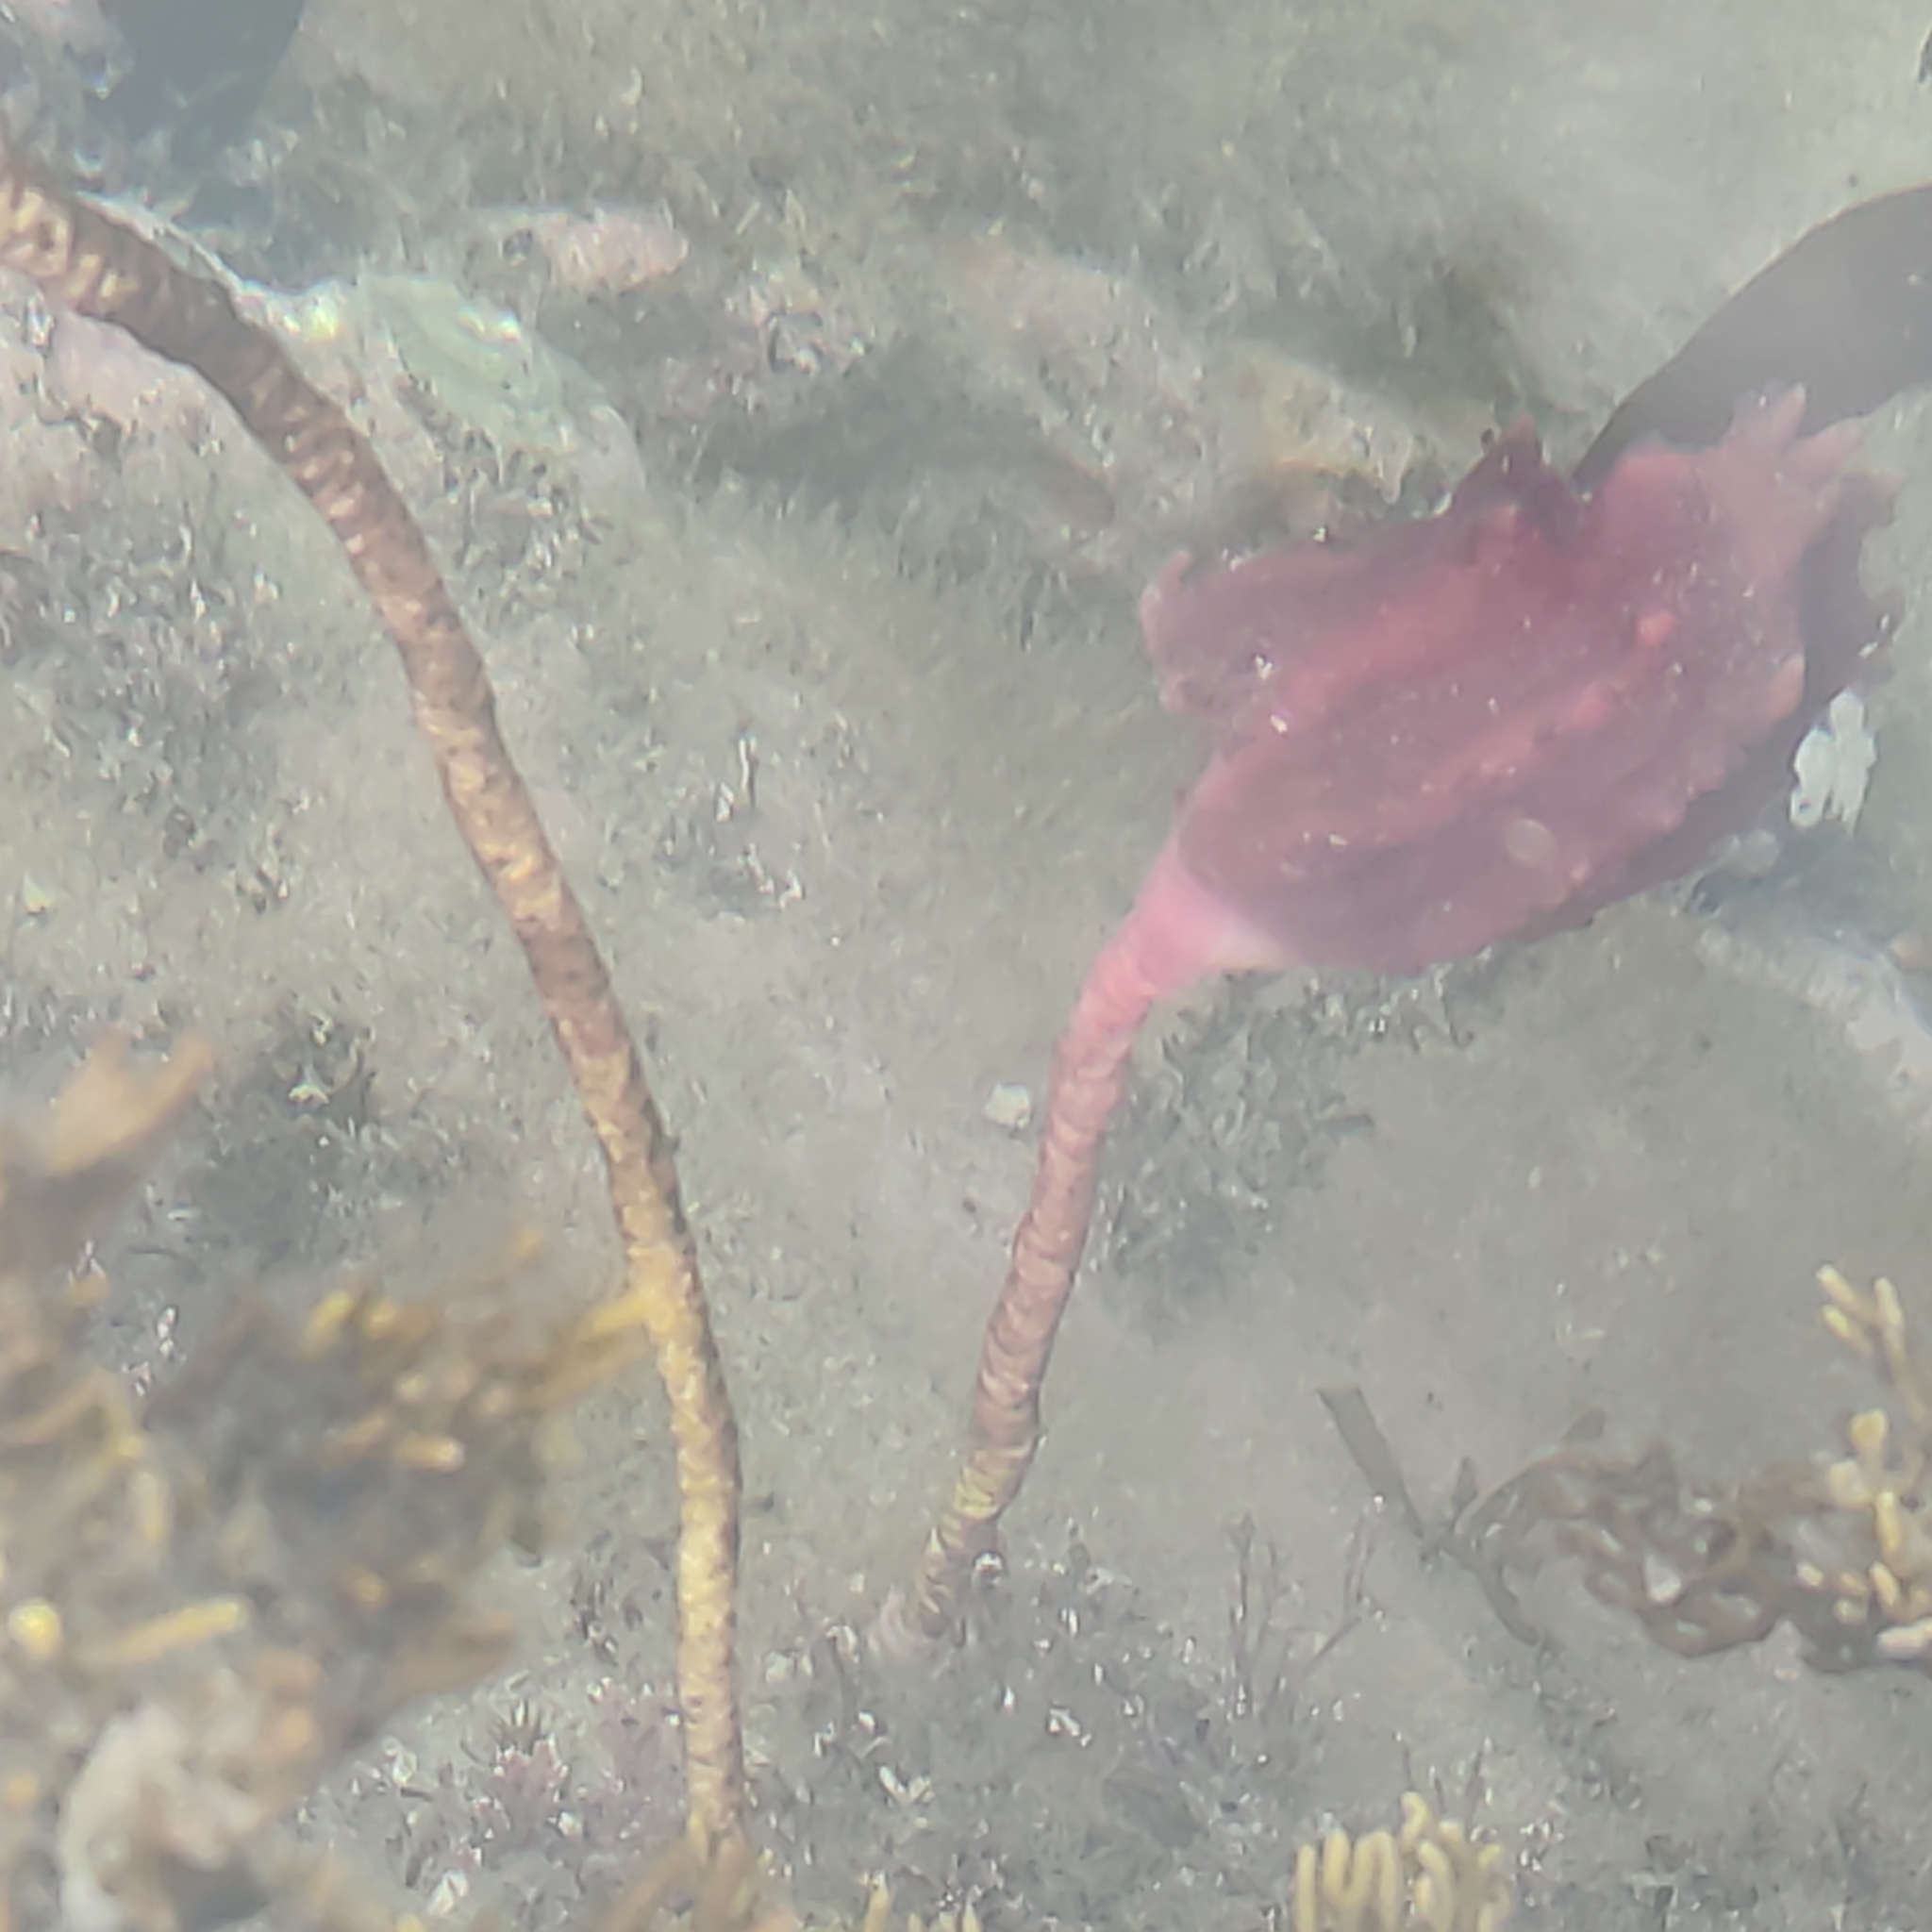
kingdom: Animalia
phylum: Chordata
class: Ascidiacea
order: Stolidobranchia
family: Pyuridae
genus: Pyura
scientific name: Pyura pachydermatina
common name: Sea tulip
